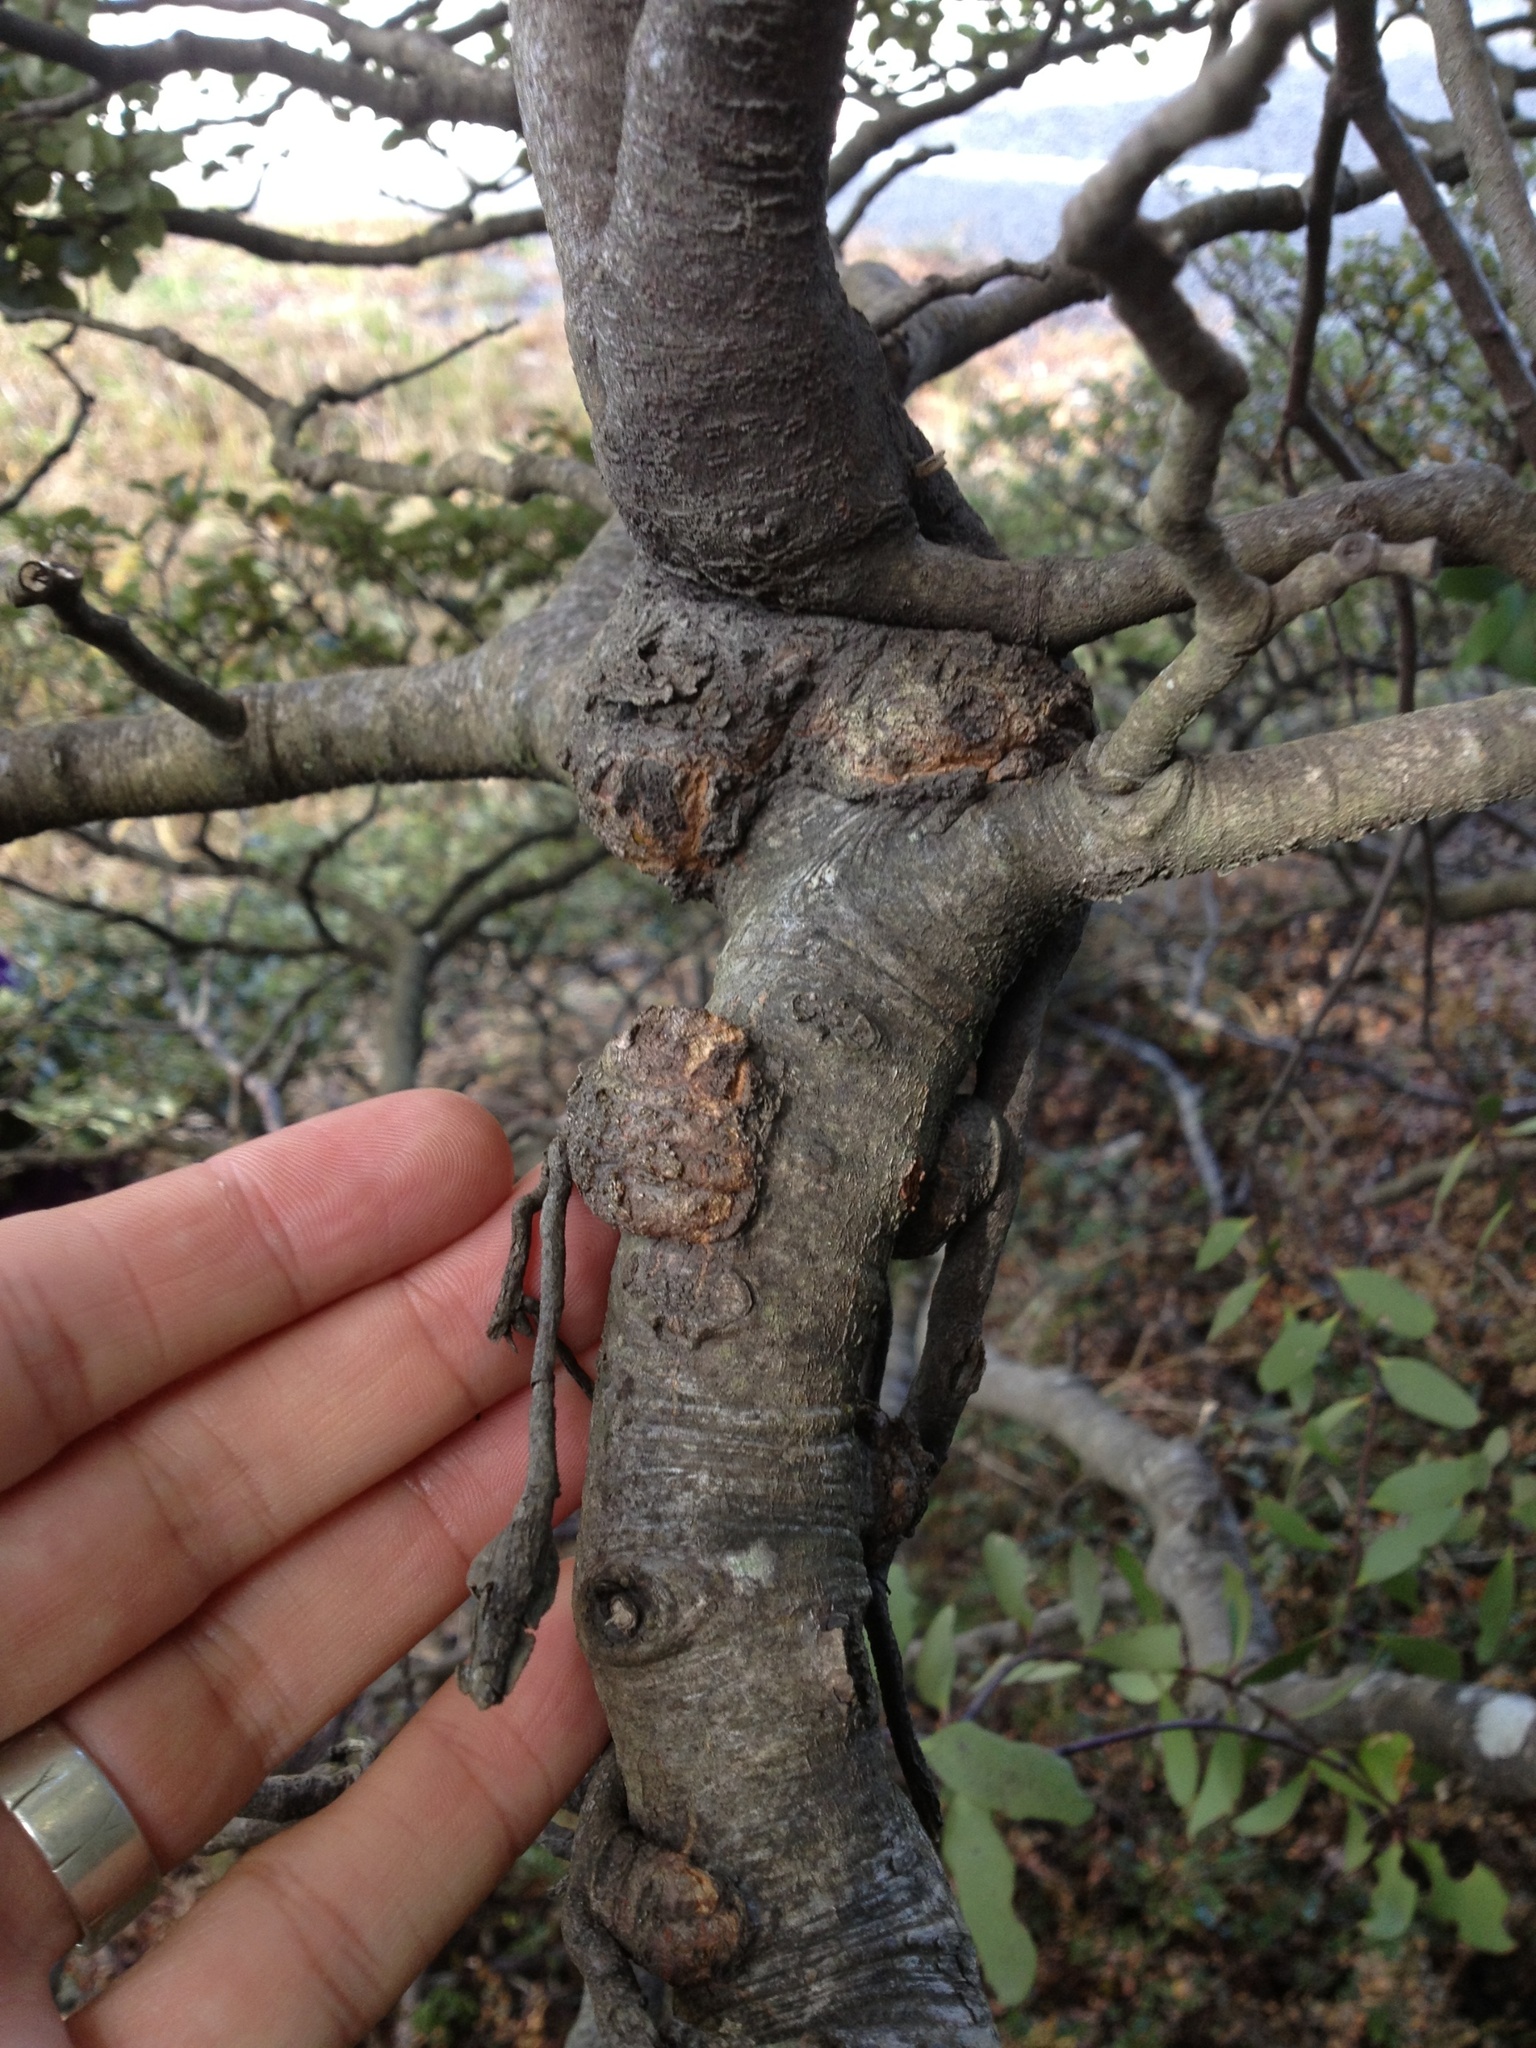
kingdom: Plantae
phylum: Tracheophyta
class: Magnoliopsida
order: Santalales
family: Loranthaceae
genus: Alepis
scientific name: Alepis flavida
